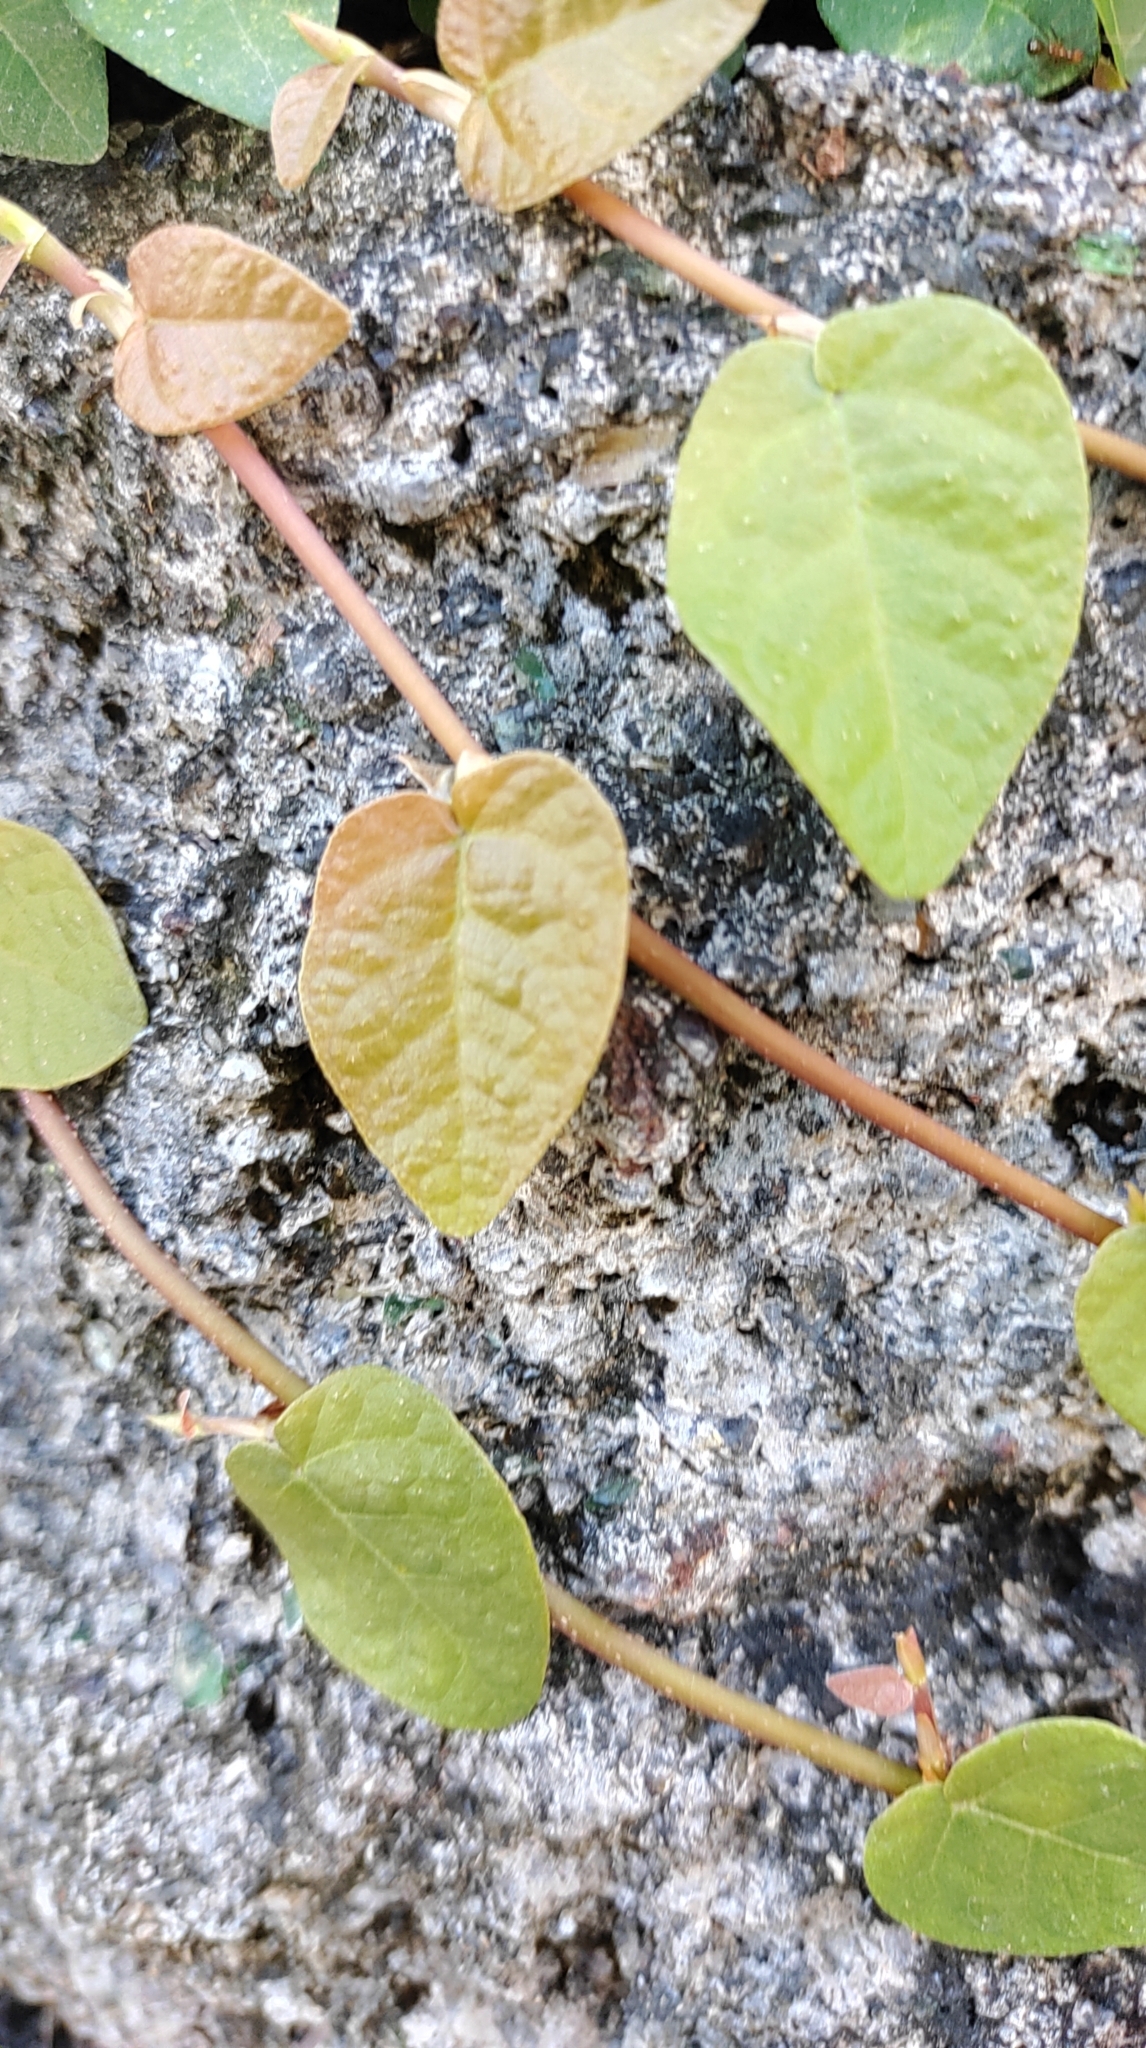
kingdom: Plantae
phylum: Tracheophyta
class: Magnoliopsida
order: Rosales
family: Moraceae
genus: Ficus
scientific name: Ficus pumila
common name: Climbingfig
